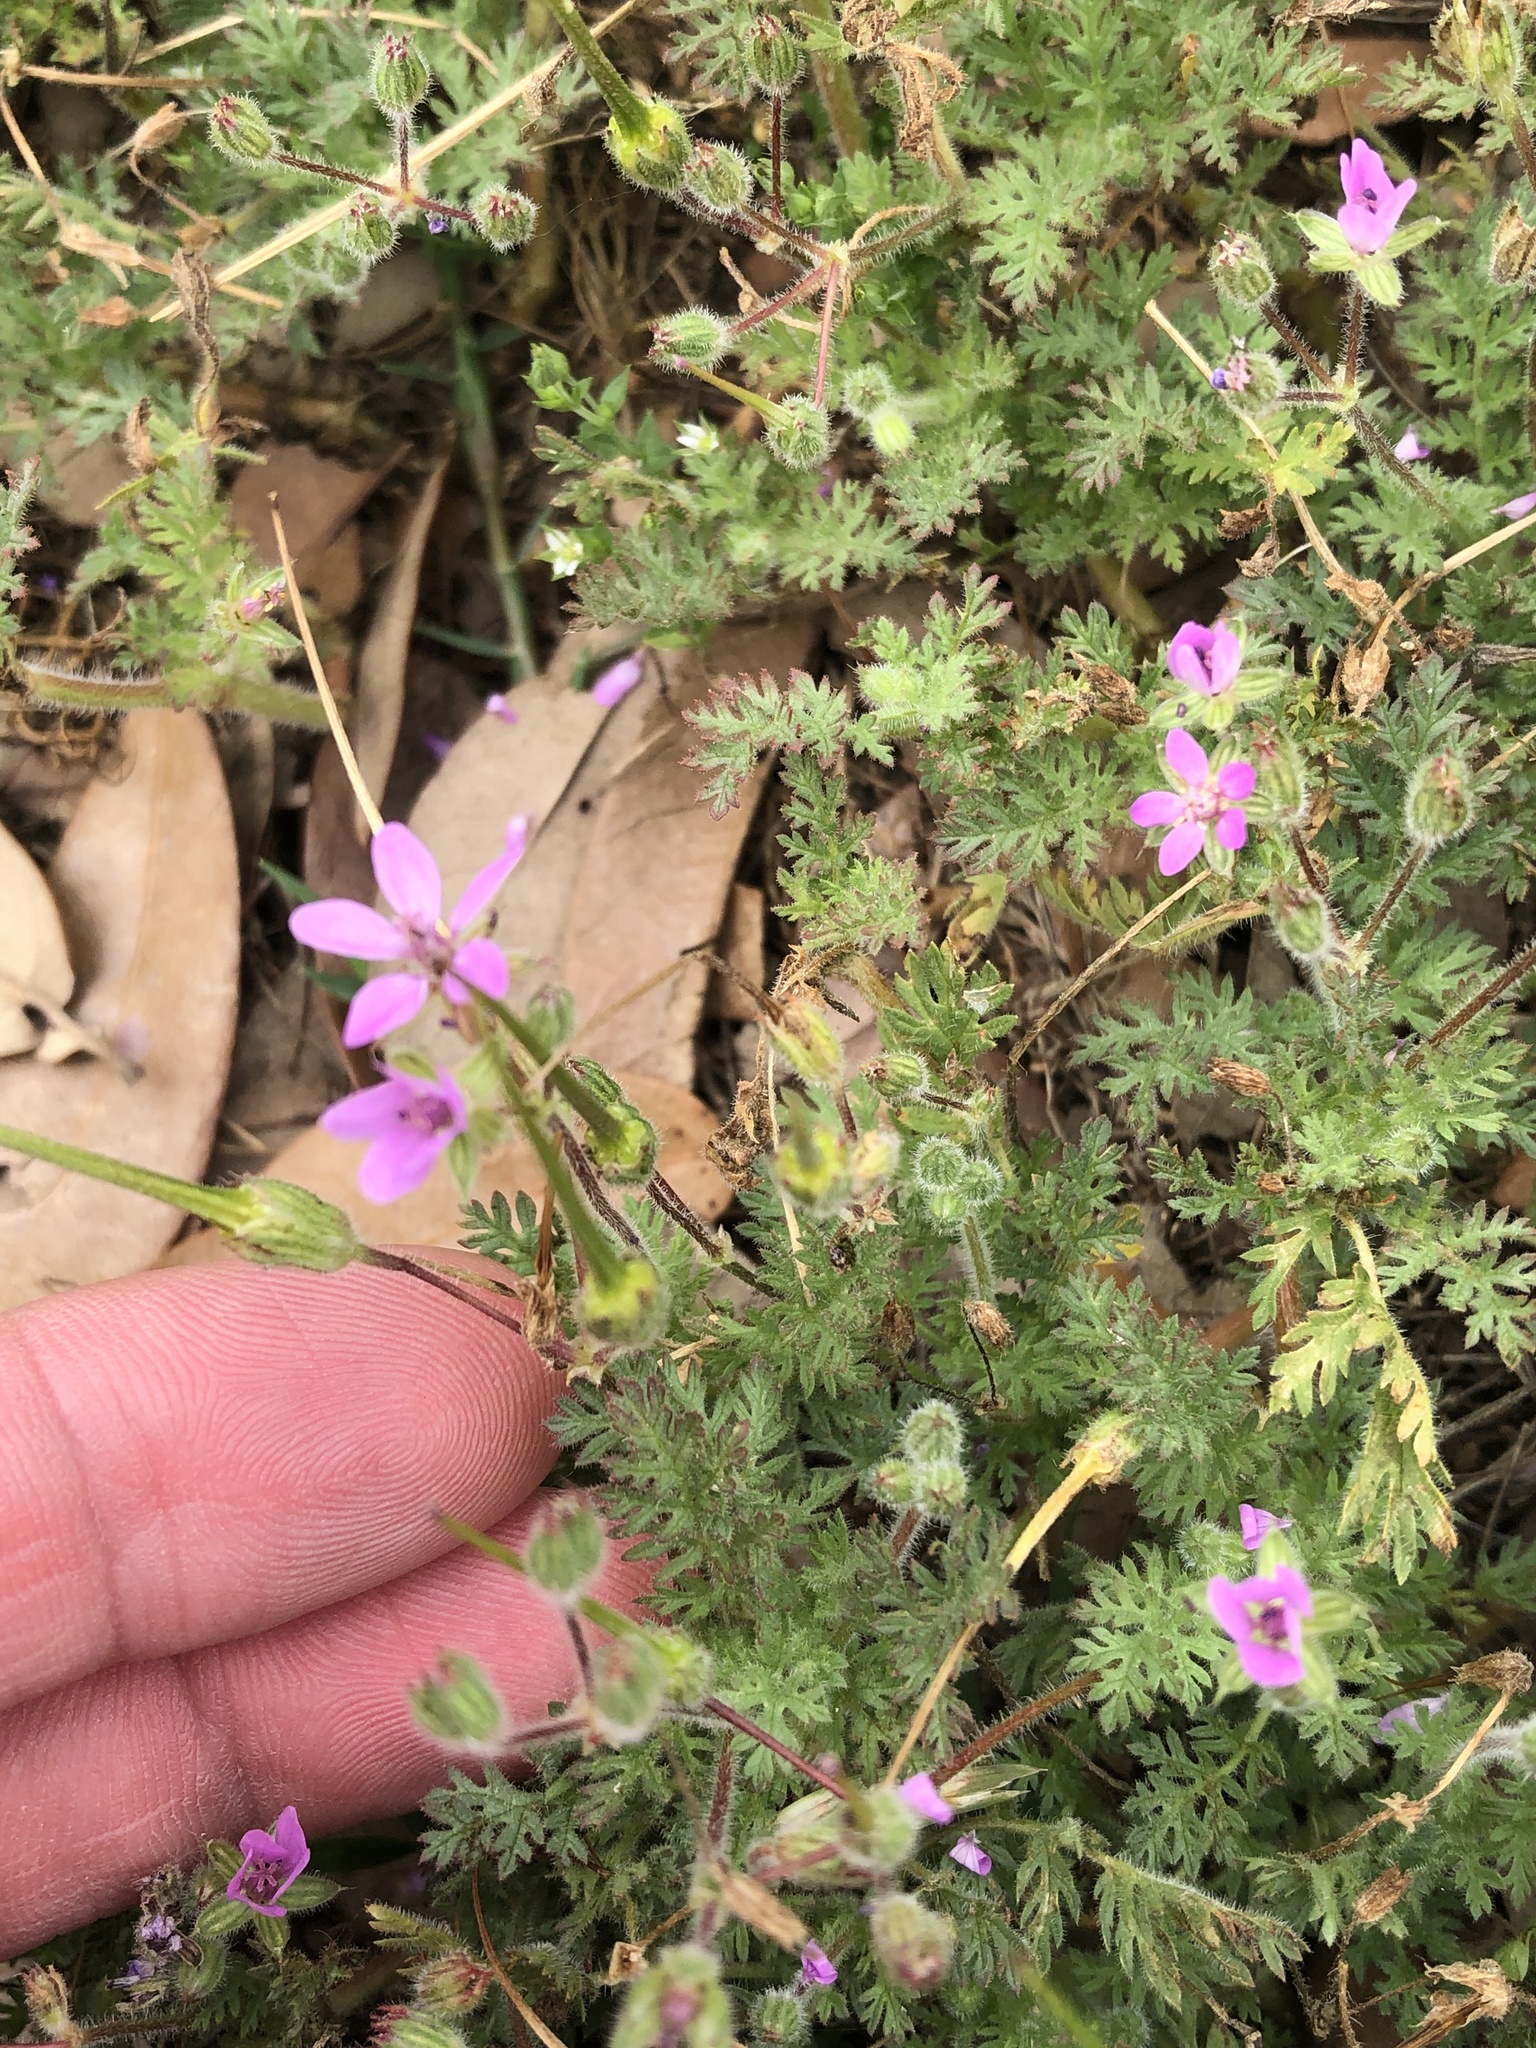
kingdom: Plantae
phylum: Tracheophyta
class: Magnoliopsida
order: Geraniales
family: Geraniaceae
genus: Erodium
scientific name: Erodium cicutarium
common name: Common stork's-bill
